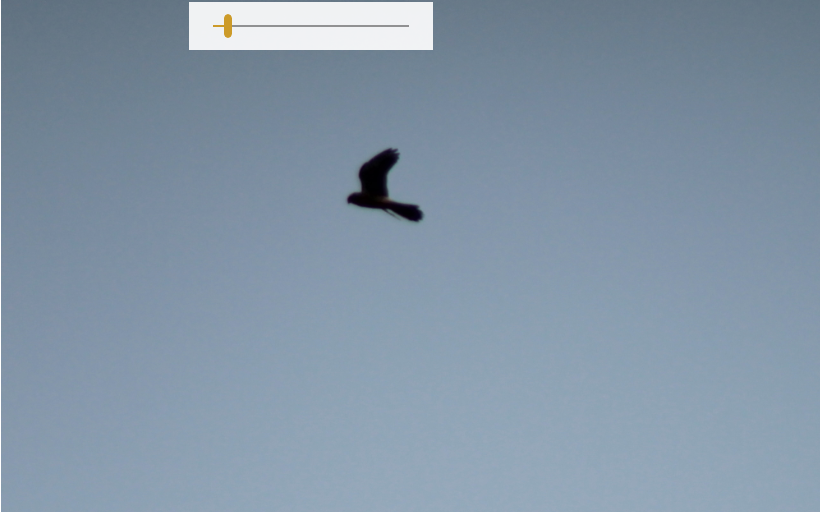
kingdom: Animalia
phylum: Chordata
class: Aves
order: Falconiformes
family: Falconidae
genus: Falco
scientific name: Falco tinnunculus
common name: Common kestrel
